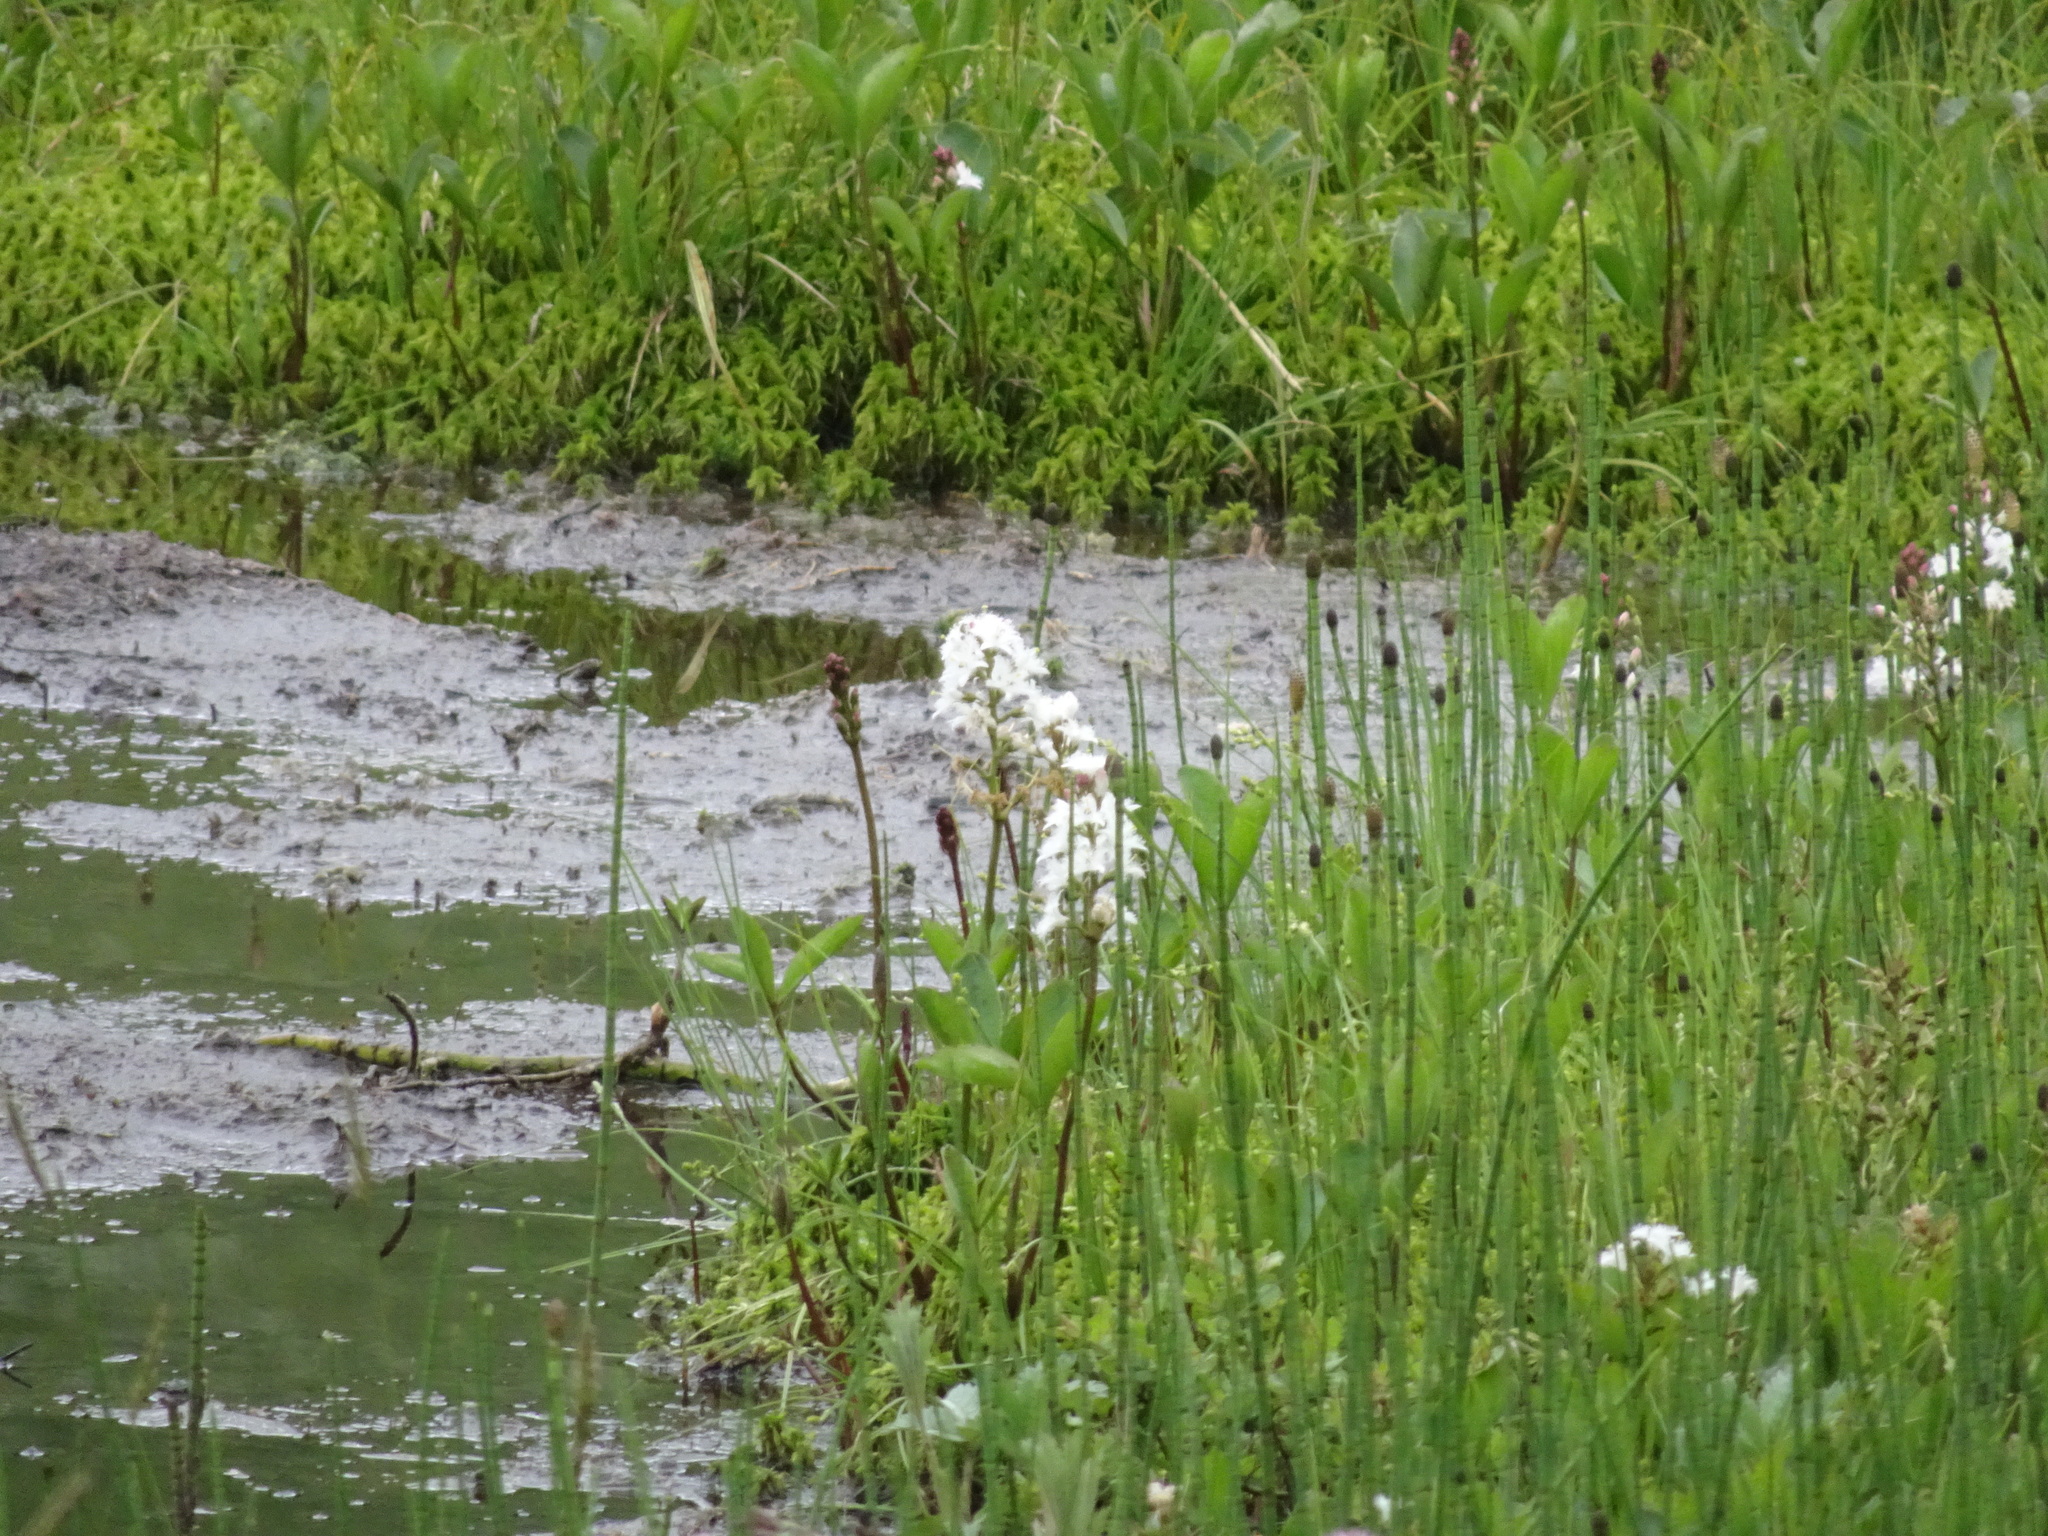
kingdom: Plantae
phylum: Tracheophyta
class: Magnoliopsida
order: Asterales
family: Menyanthaceae
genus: Menyanthes
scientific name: Menyanthes trifoliata
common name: Bogbean
